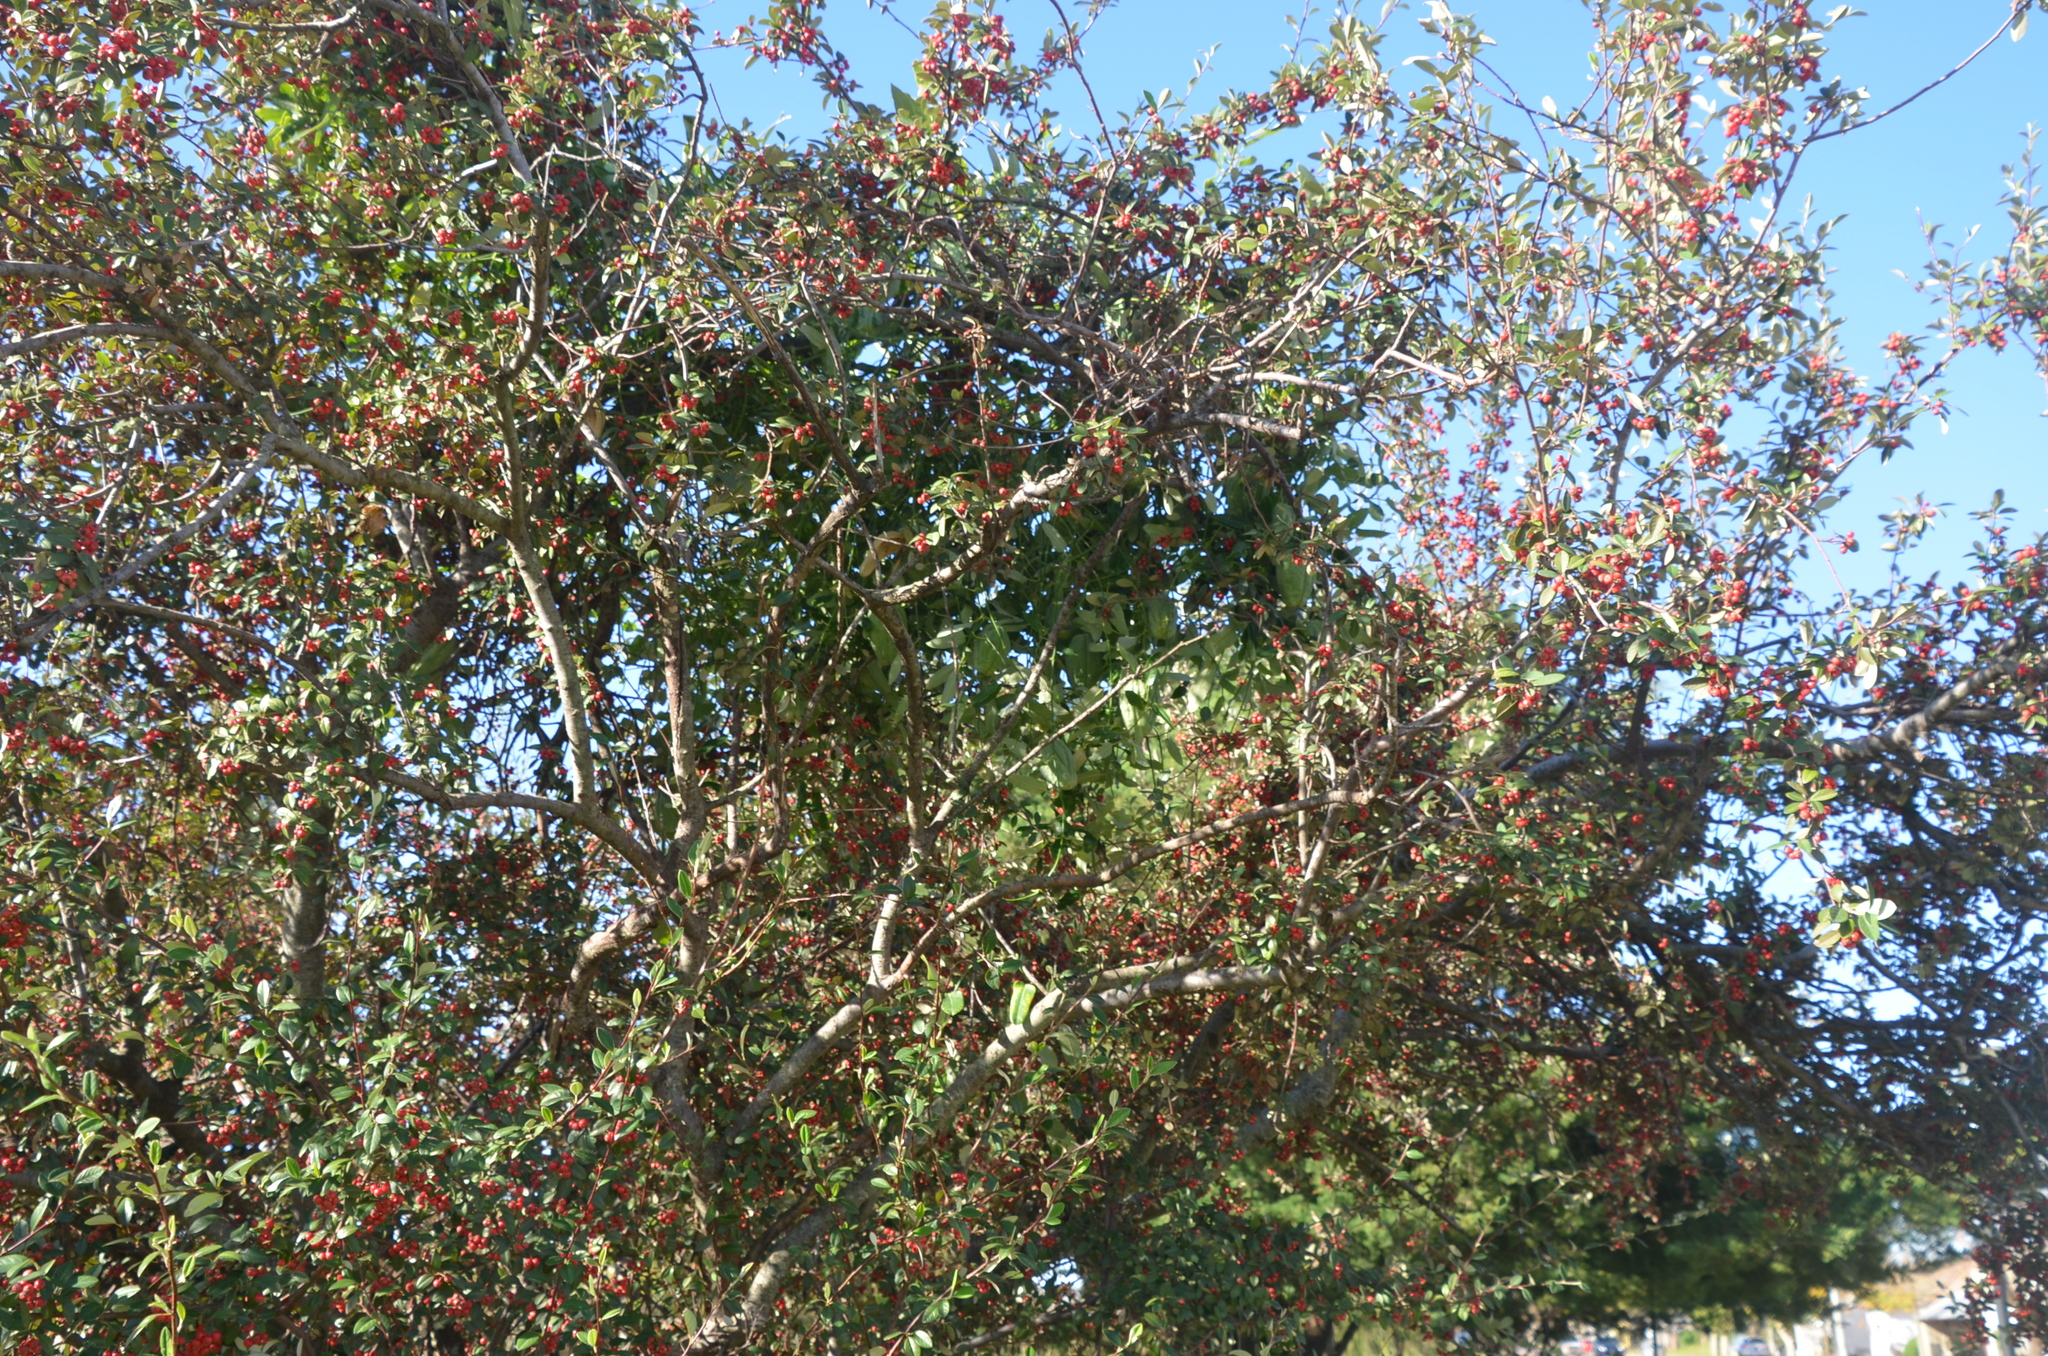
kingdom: Plantae
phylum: Tracheophyta
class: Magnoliopsida
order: Gentianales
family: Apocynaceae
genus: Araujia
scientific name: Araujia sericifera
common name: White bladderflower
